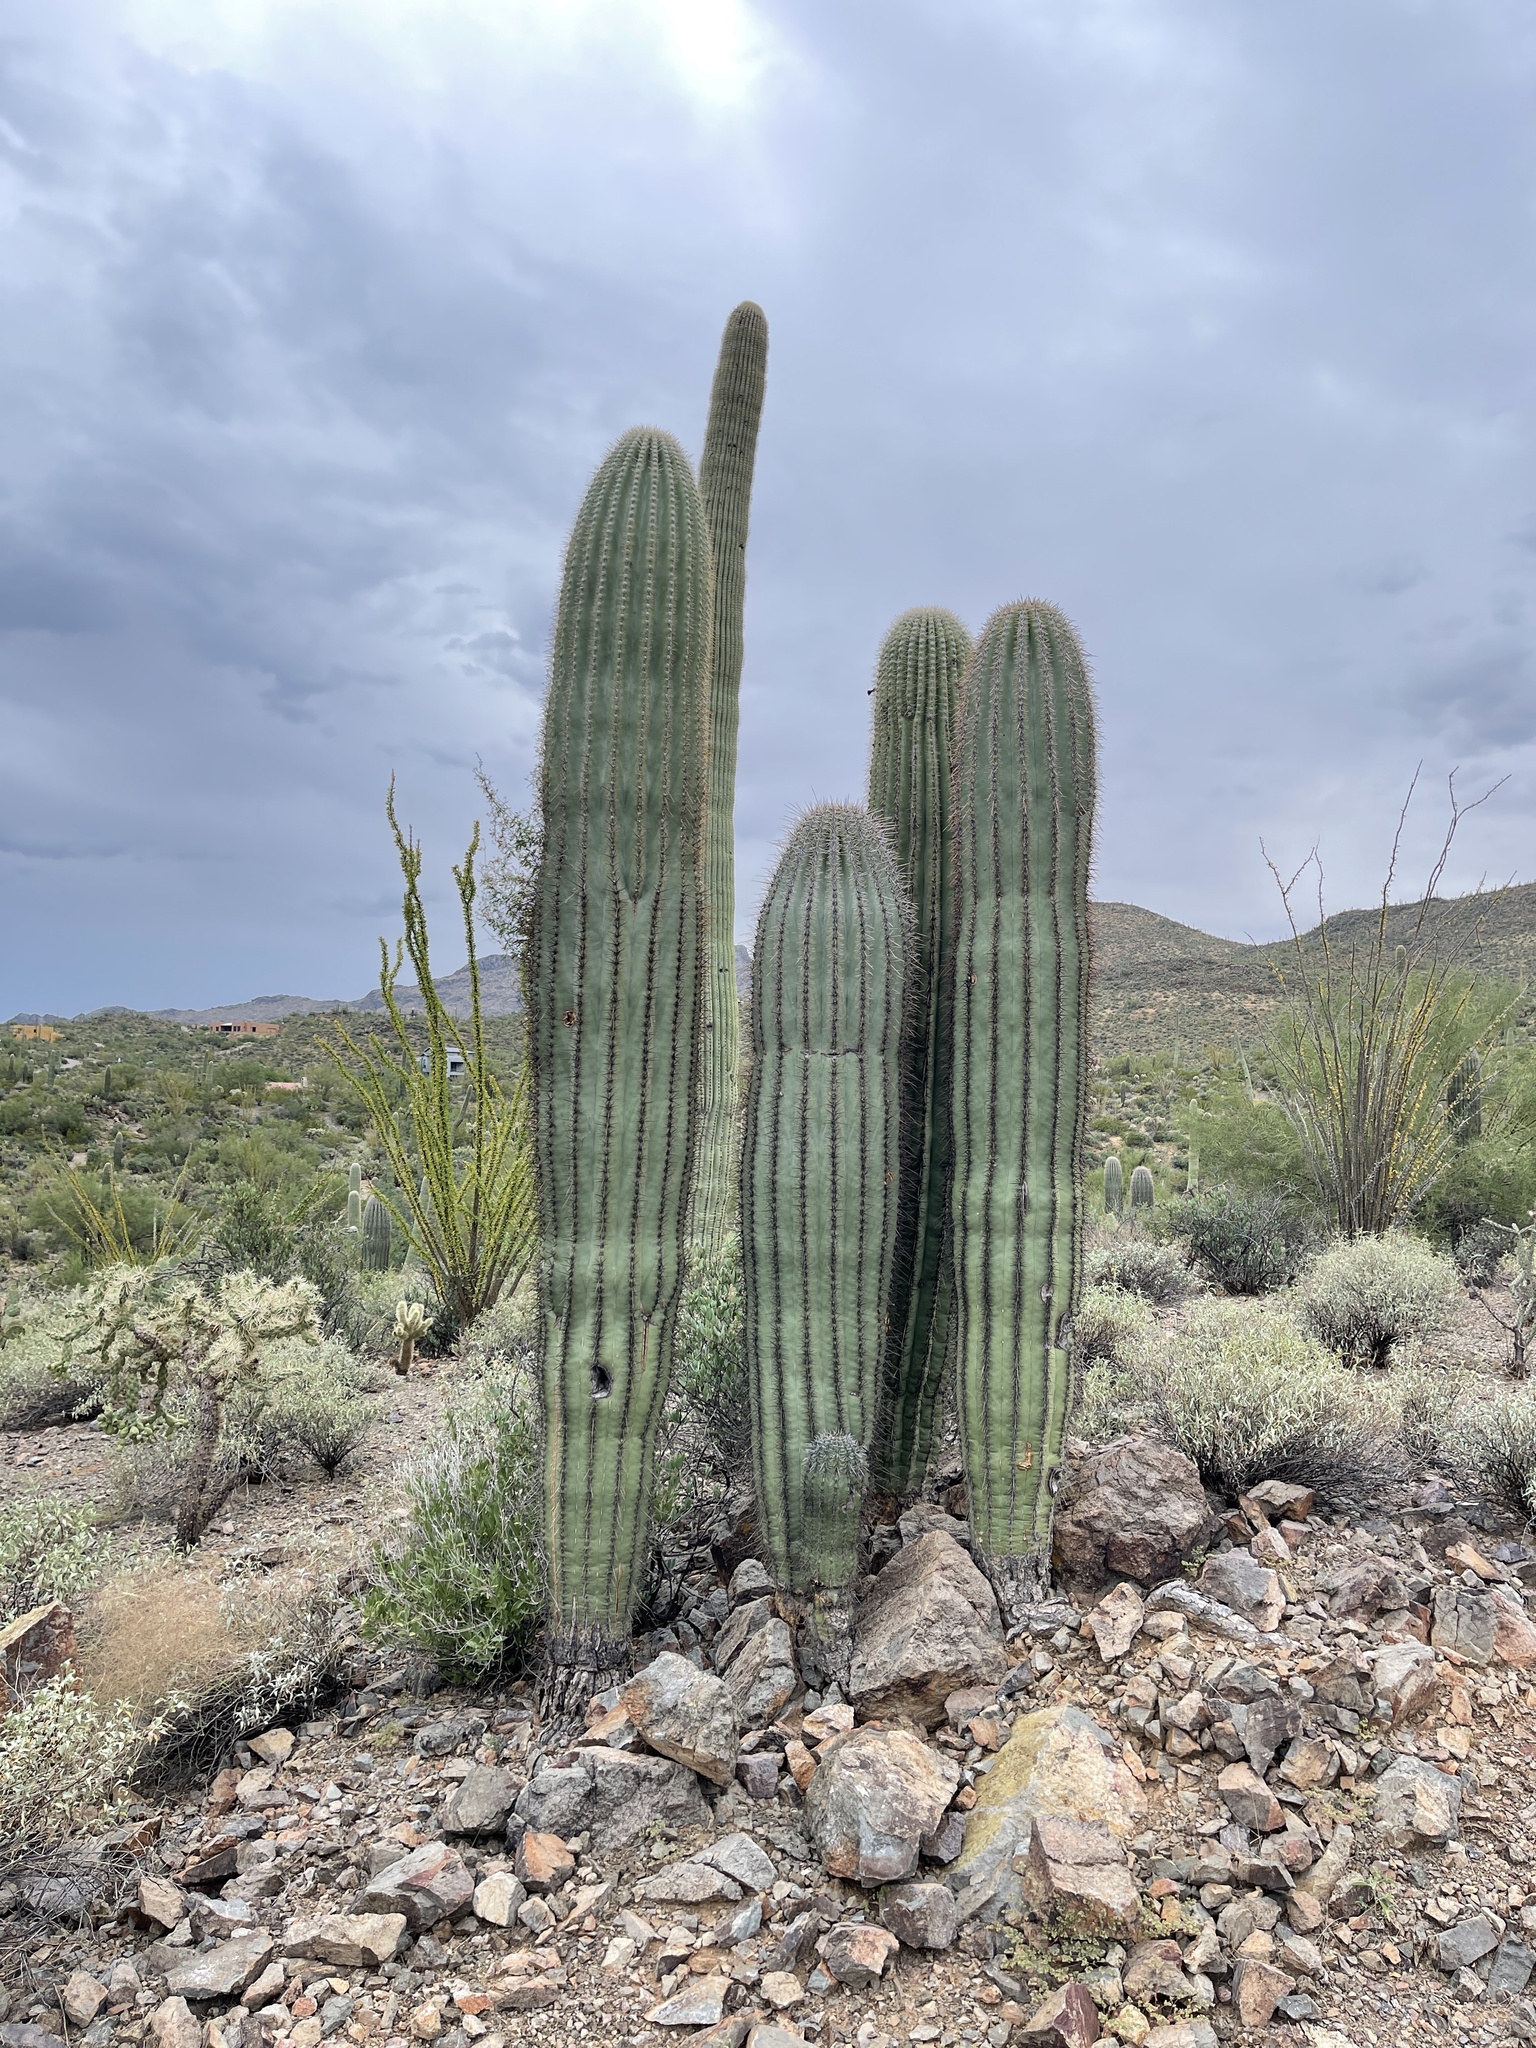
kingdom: Plantae
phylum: Tracheophyta
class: Magnoliopsida
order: Caryophyllales
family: Cactaceae
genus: Carnegiea
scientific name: Carnegiea gigantea
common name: Saguaro
